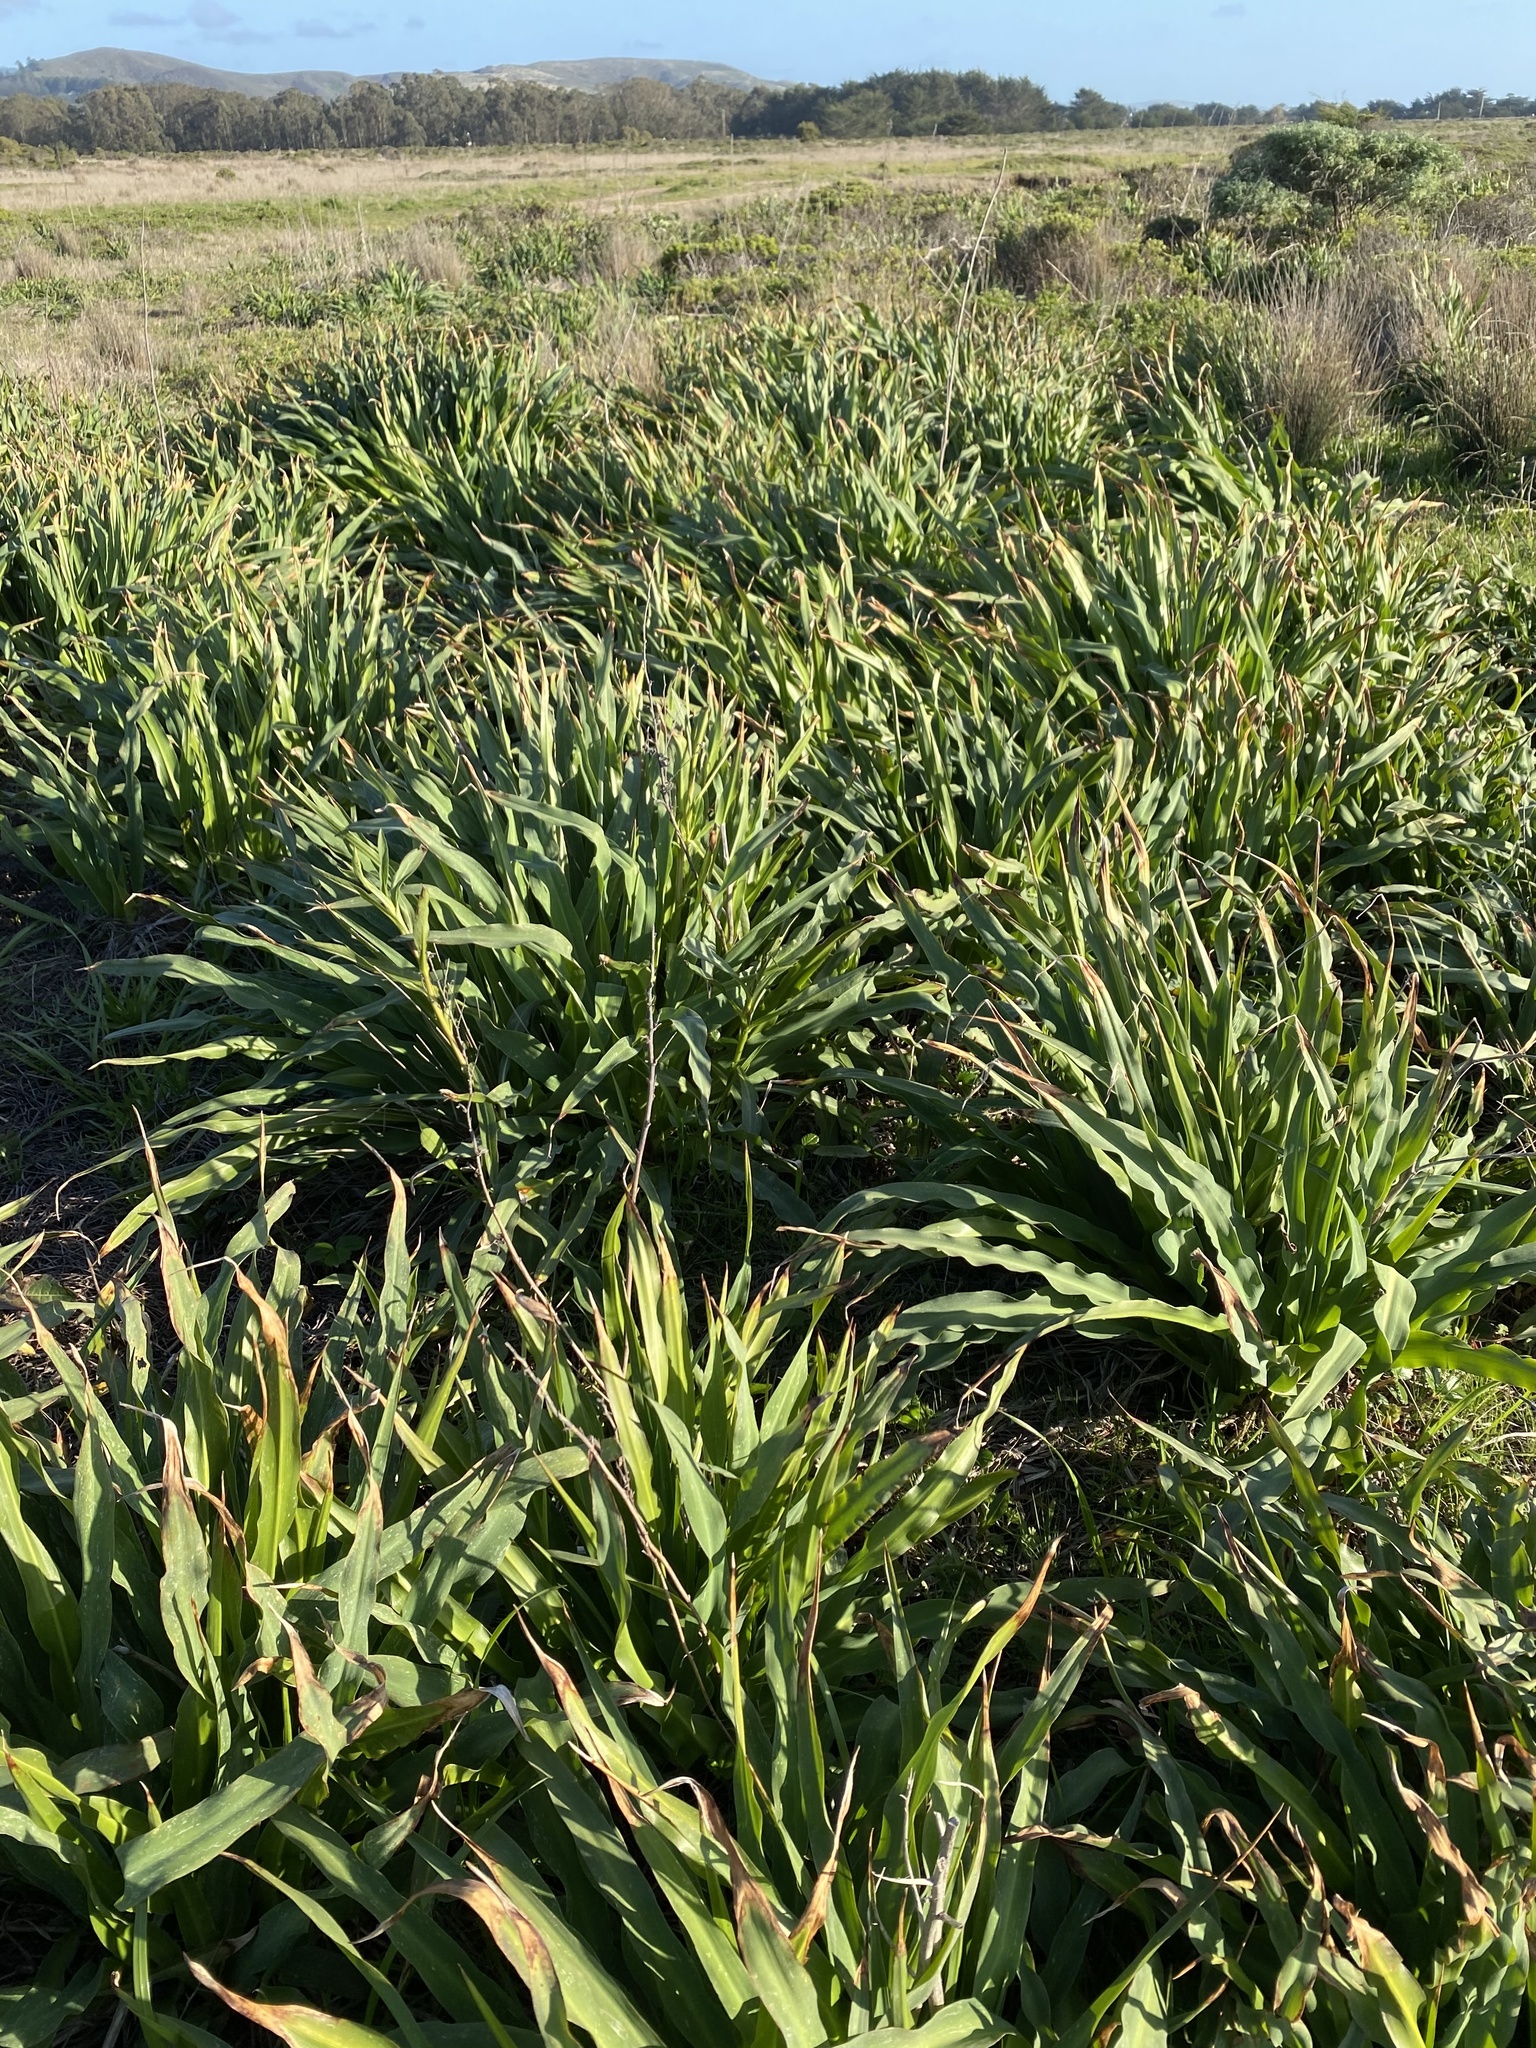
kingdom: Plantae
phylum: Tracheophyta
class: Liliopsida
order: Asparagales
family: Asparagaceae
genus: Chlorogalum
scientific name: Chlorogalum pomeridianum
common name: Amole
